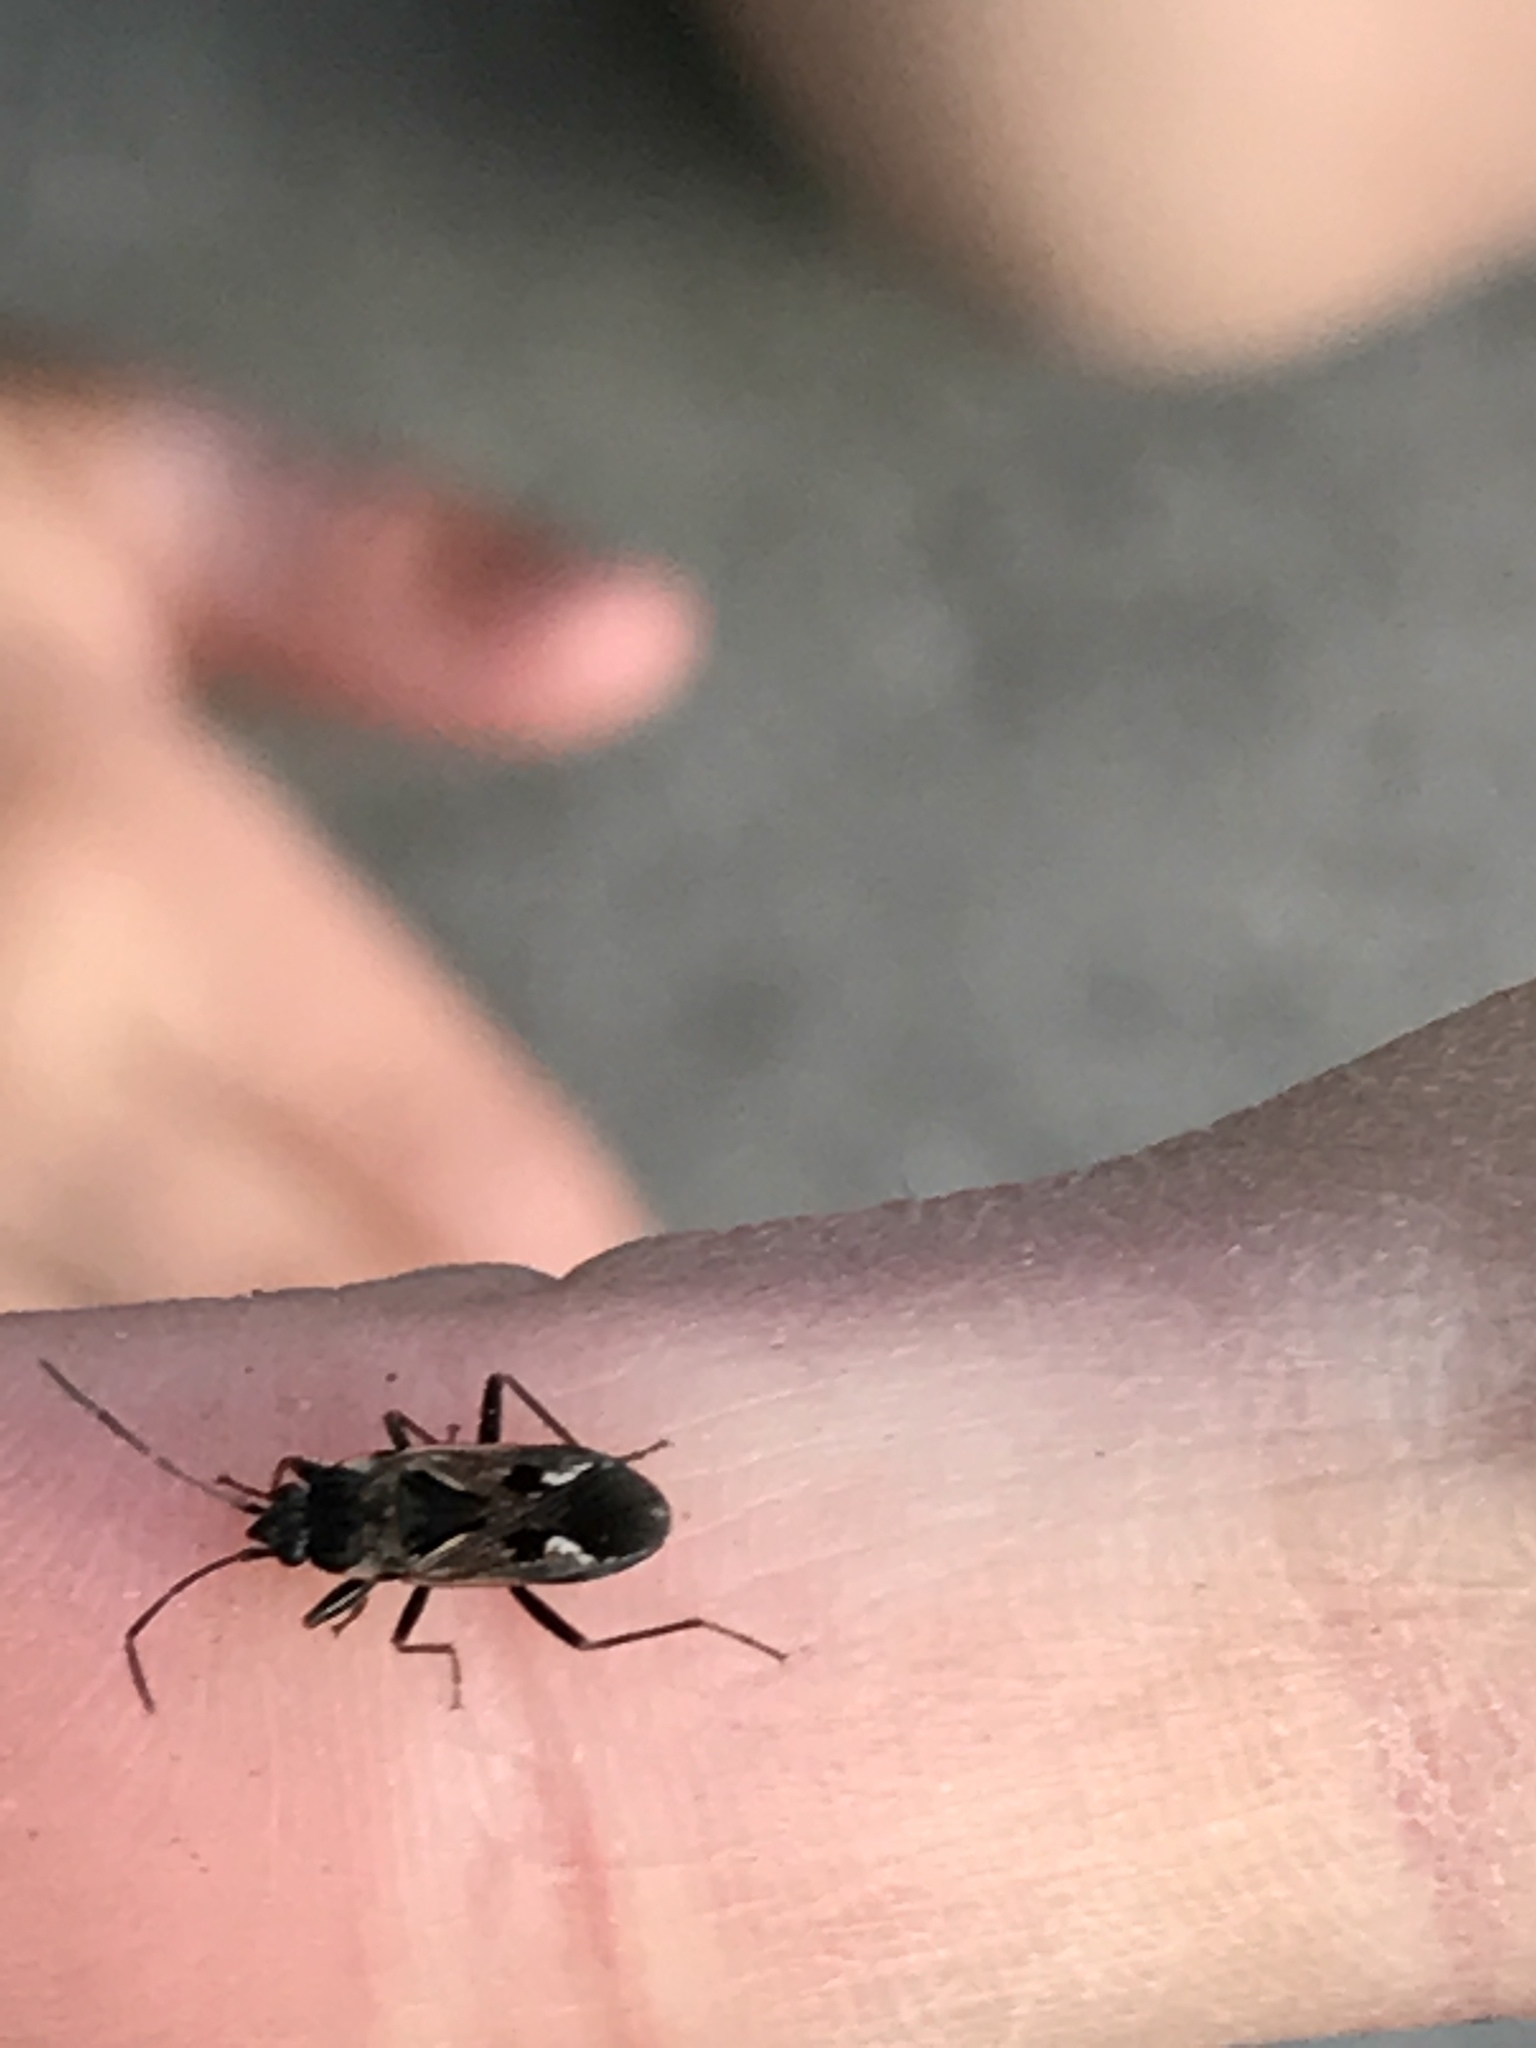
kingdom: Animalia
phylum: Arthropoda
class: Insecta
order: Hemiptera
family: Rhyparochromidae
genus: Rhyparochromus
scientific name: Rhyparochromus vulgaris
